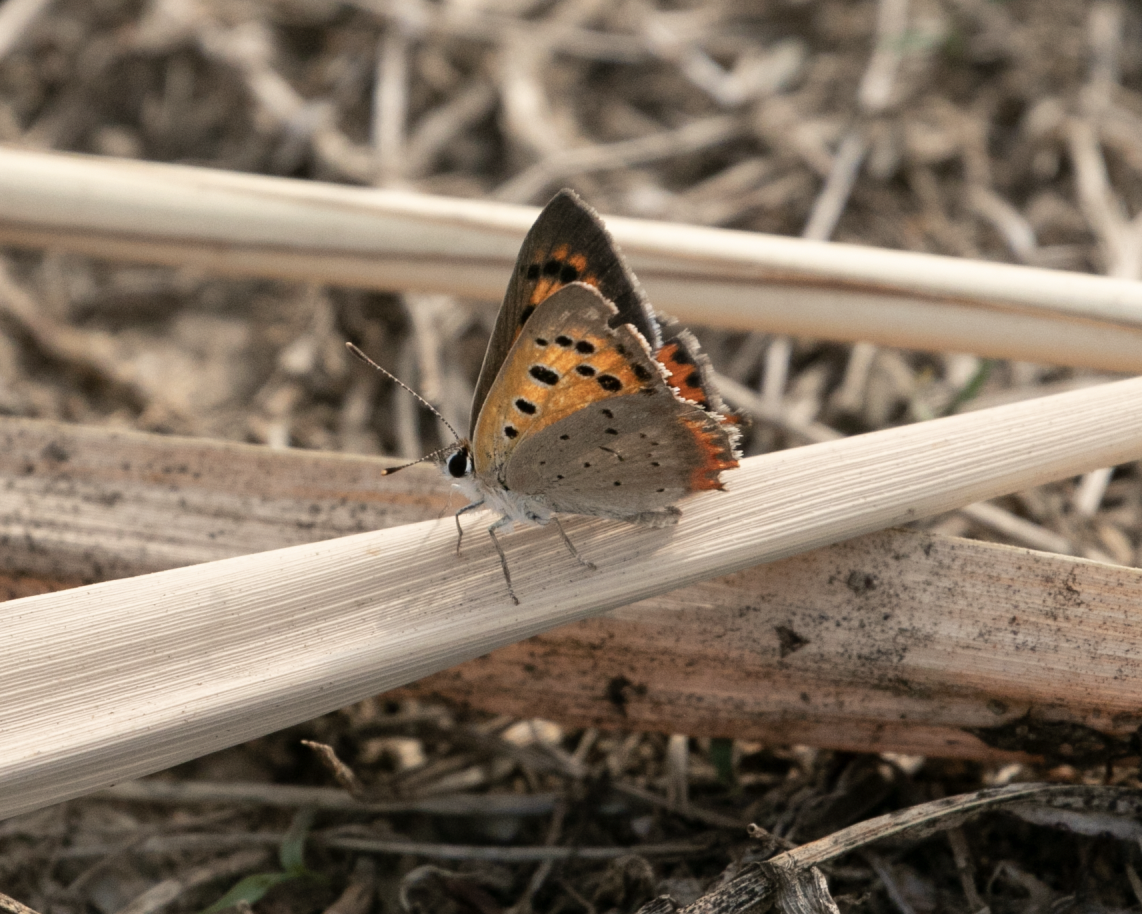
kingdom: Animalia
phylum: Arthropoda
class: Insecta
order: Lepidoptera
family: Lycaenidae
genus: Lycaena
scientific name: Lycaena phlaeas
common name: Small copper
